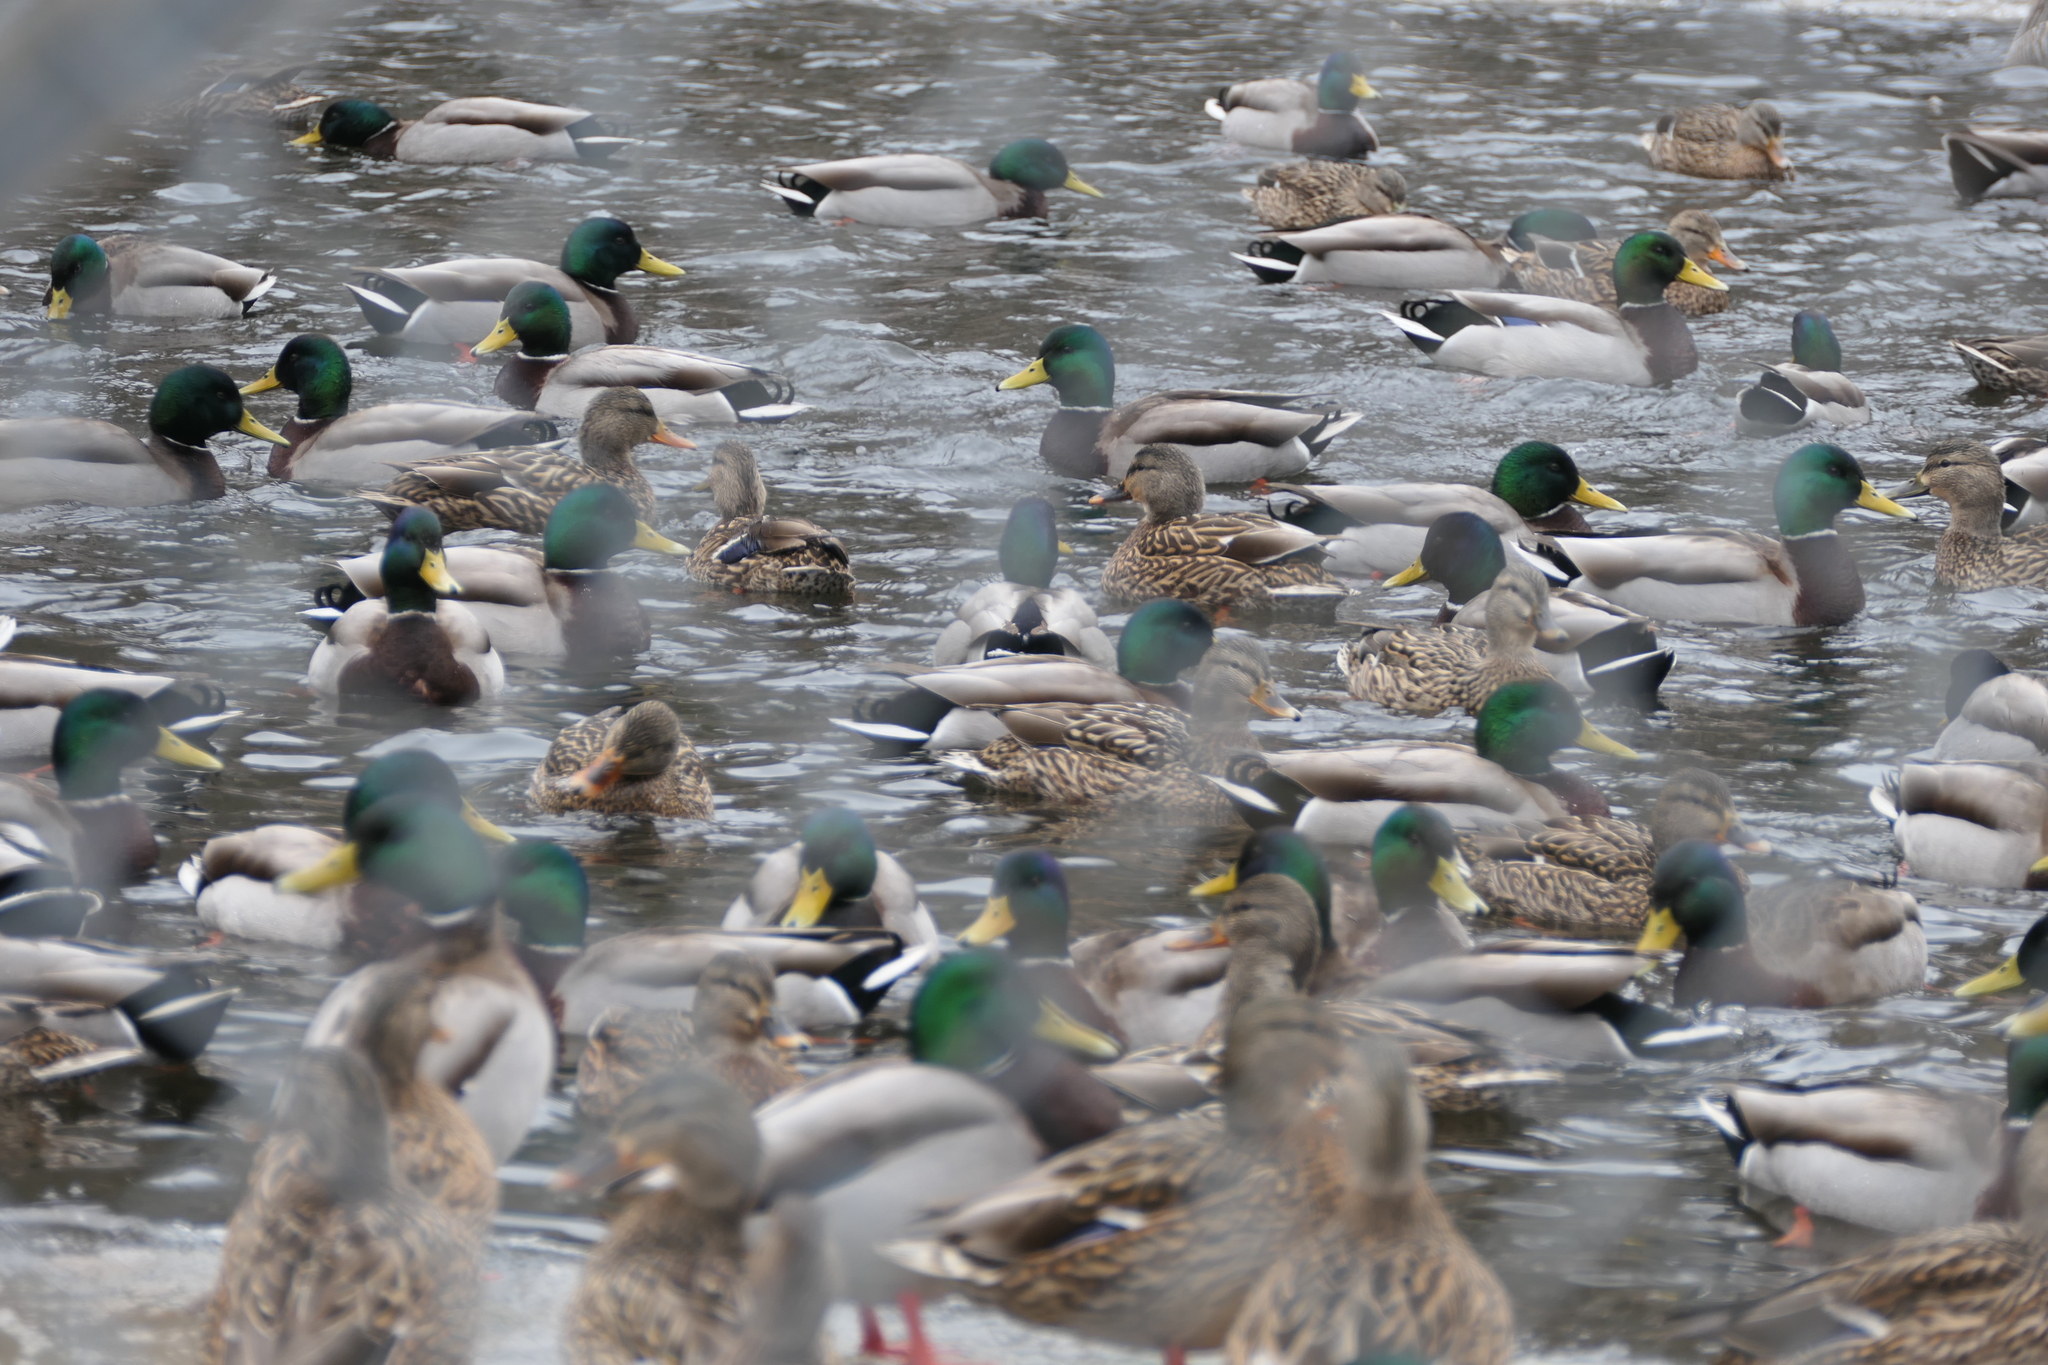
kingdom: Animalia
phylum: Chordata
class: Aves
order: Anseriformes
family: Anatidae
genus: Anas
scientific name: Anas platyrhynchos
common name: Mallard
